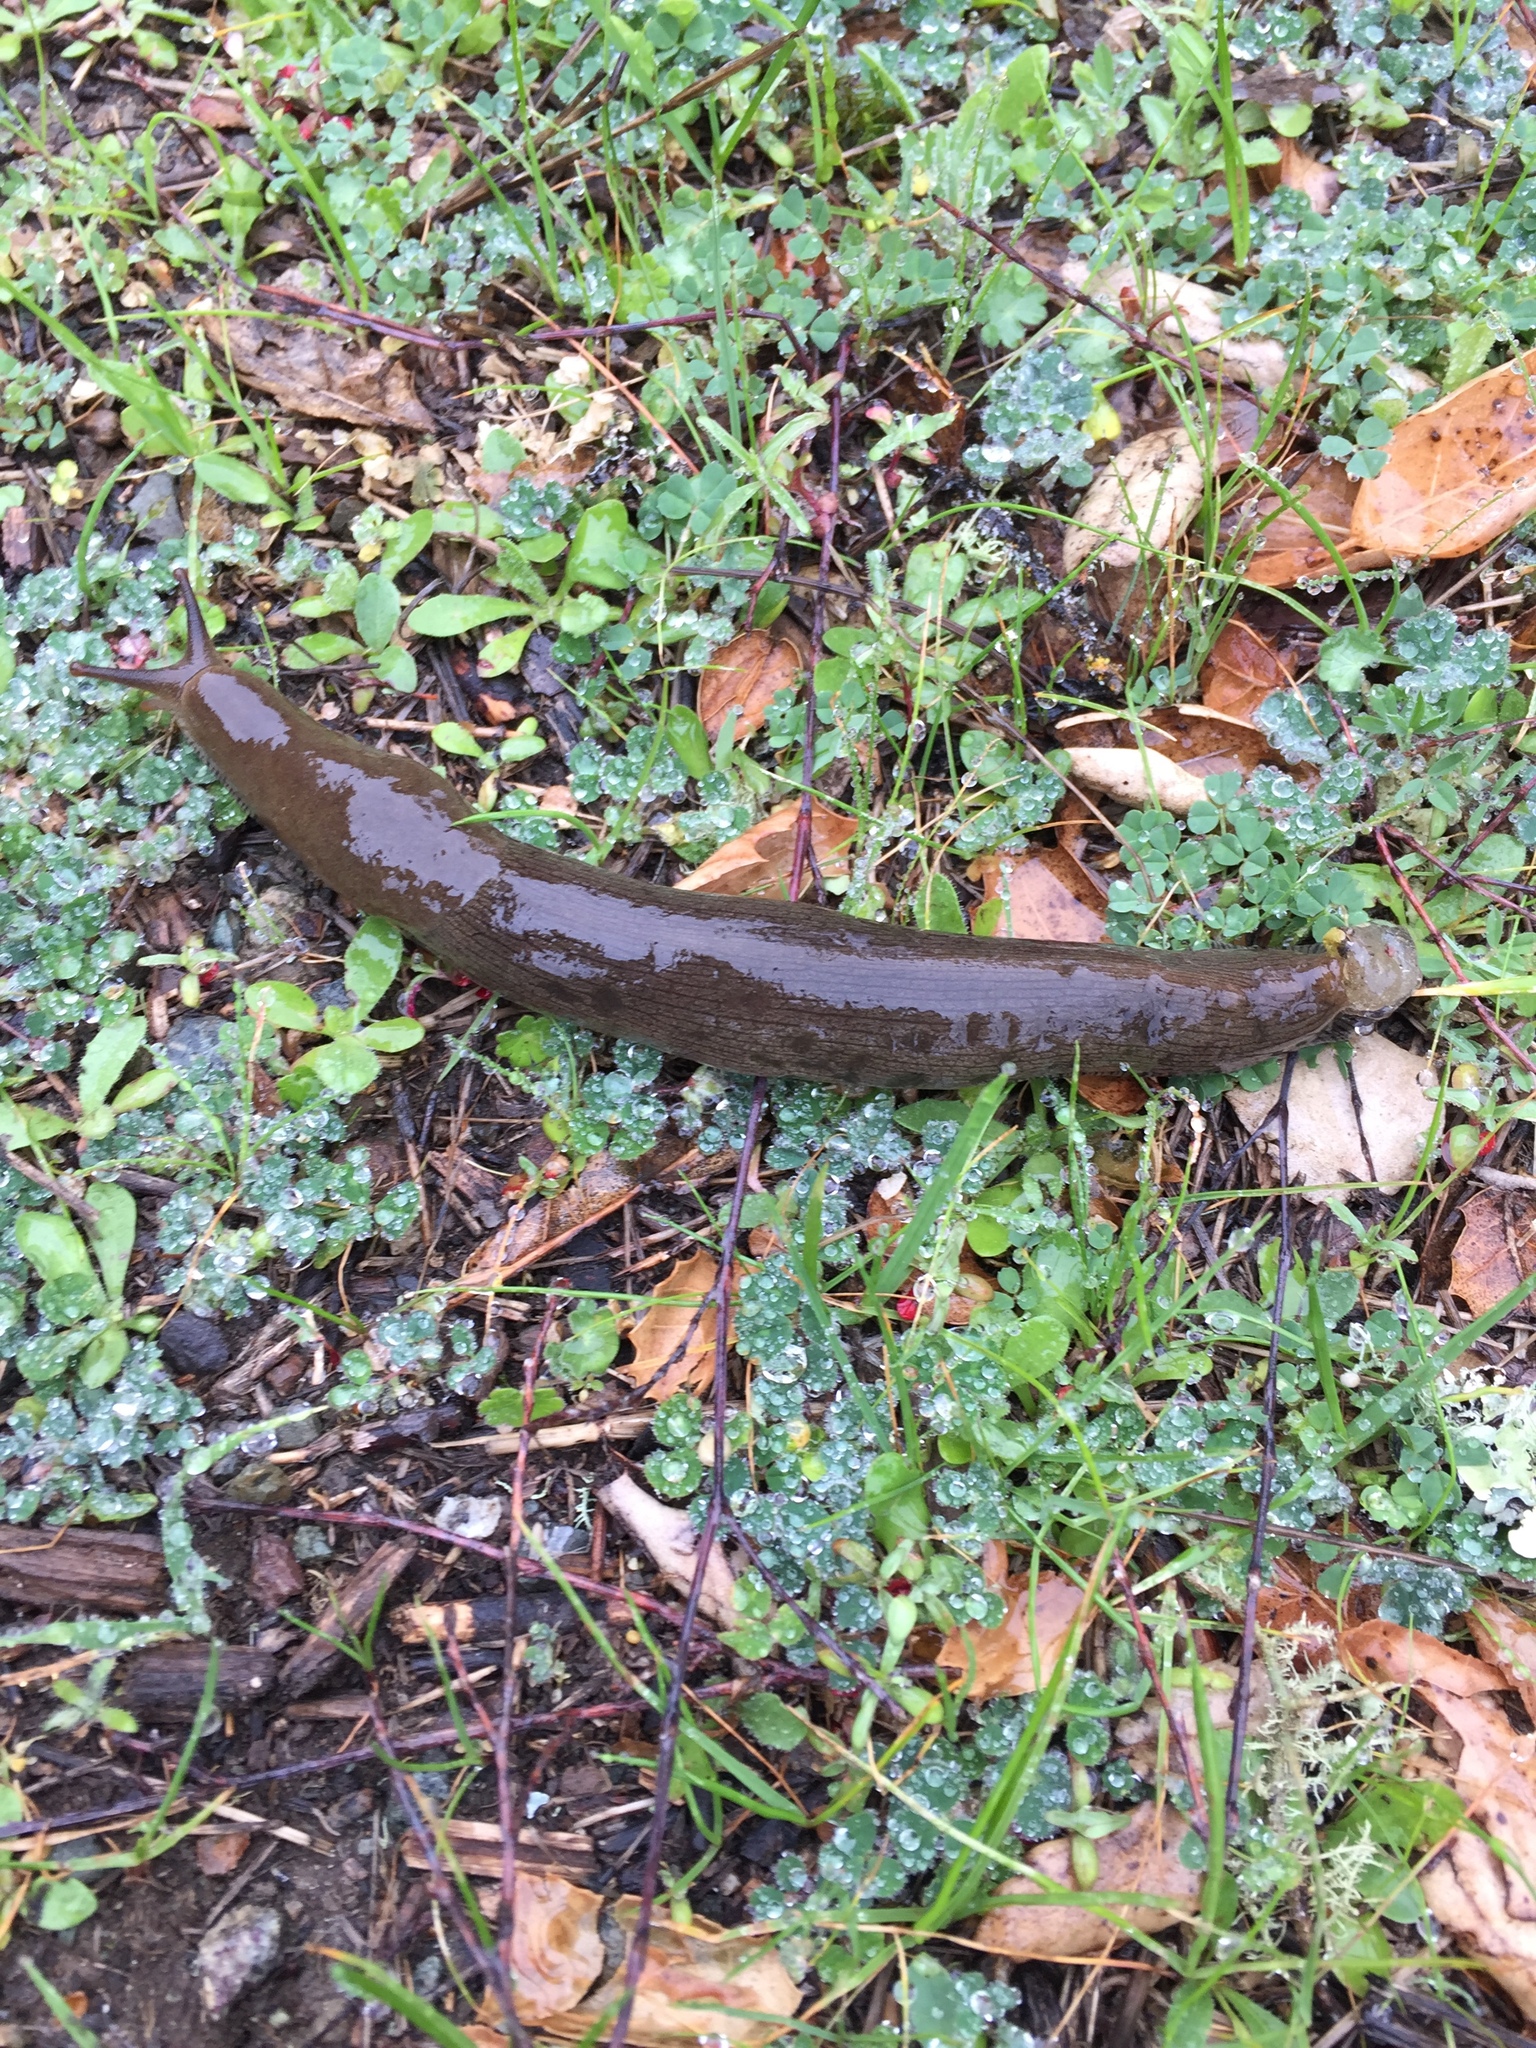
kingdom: Animalia
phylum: Mollusca
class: Gastropoda
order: Stylommatophora
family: Ariolimacidae
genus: Ariolimax
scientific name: Ariolimax buttoni
